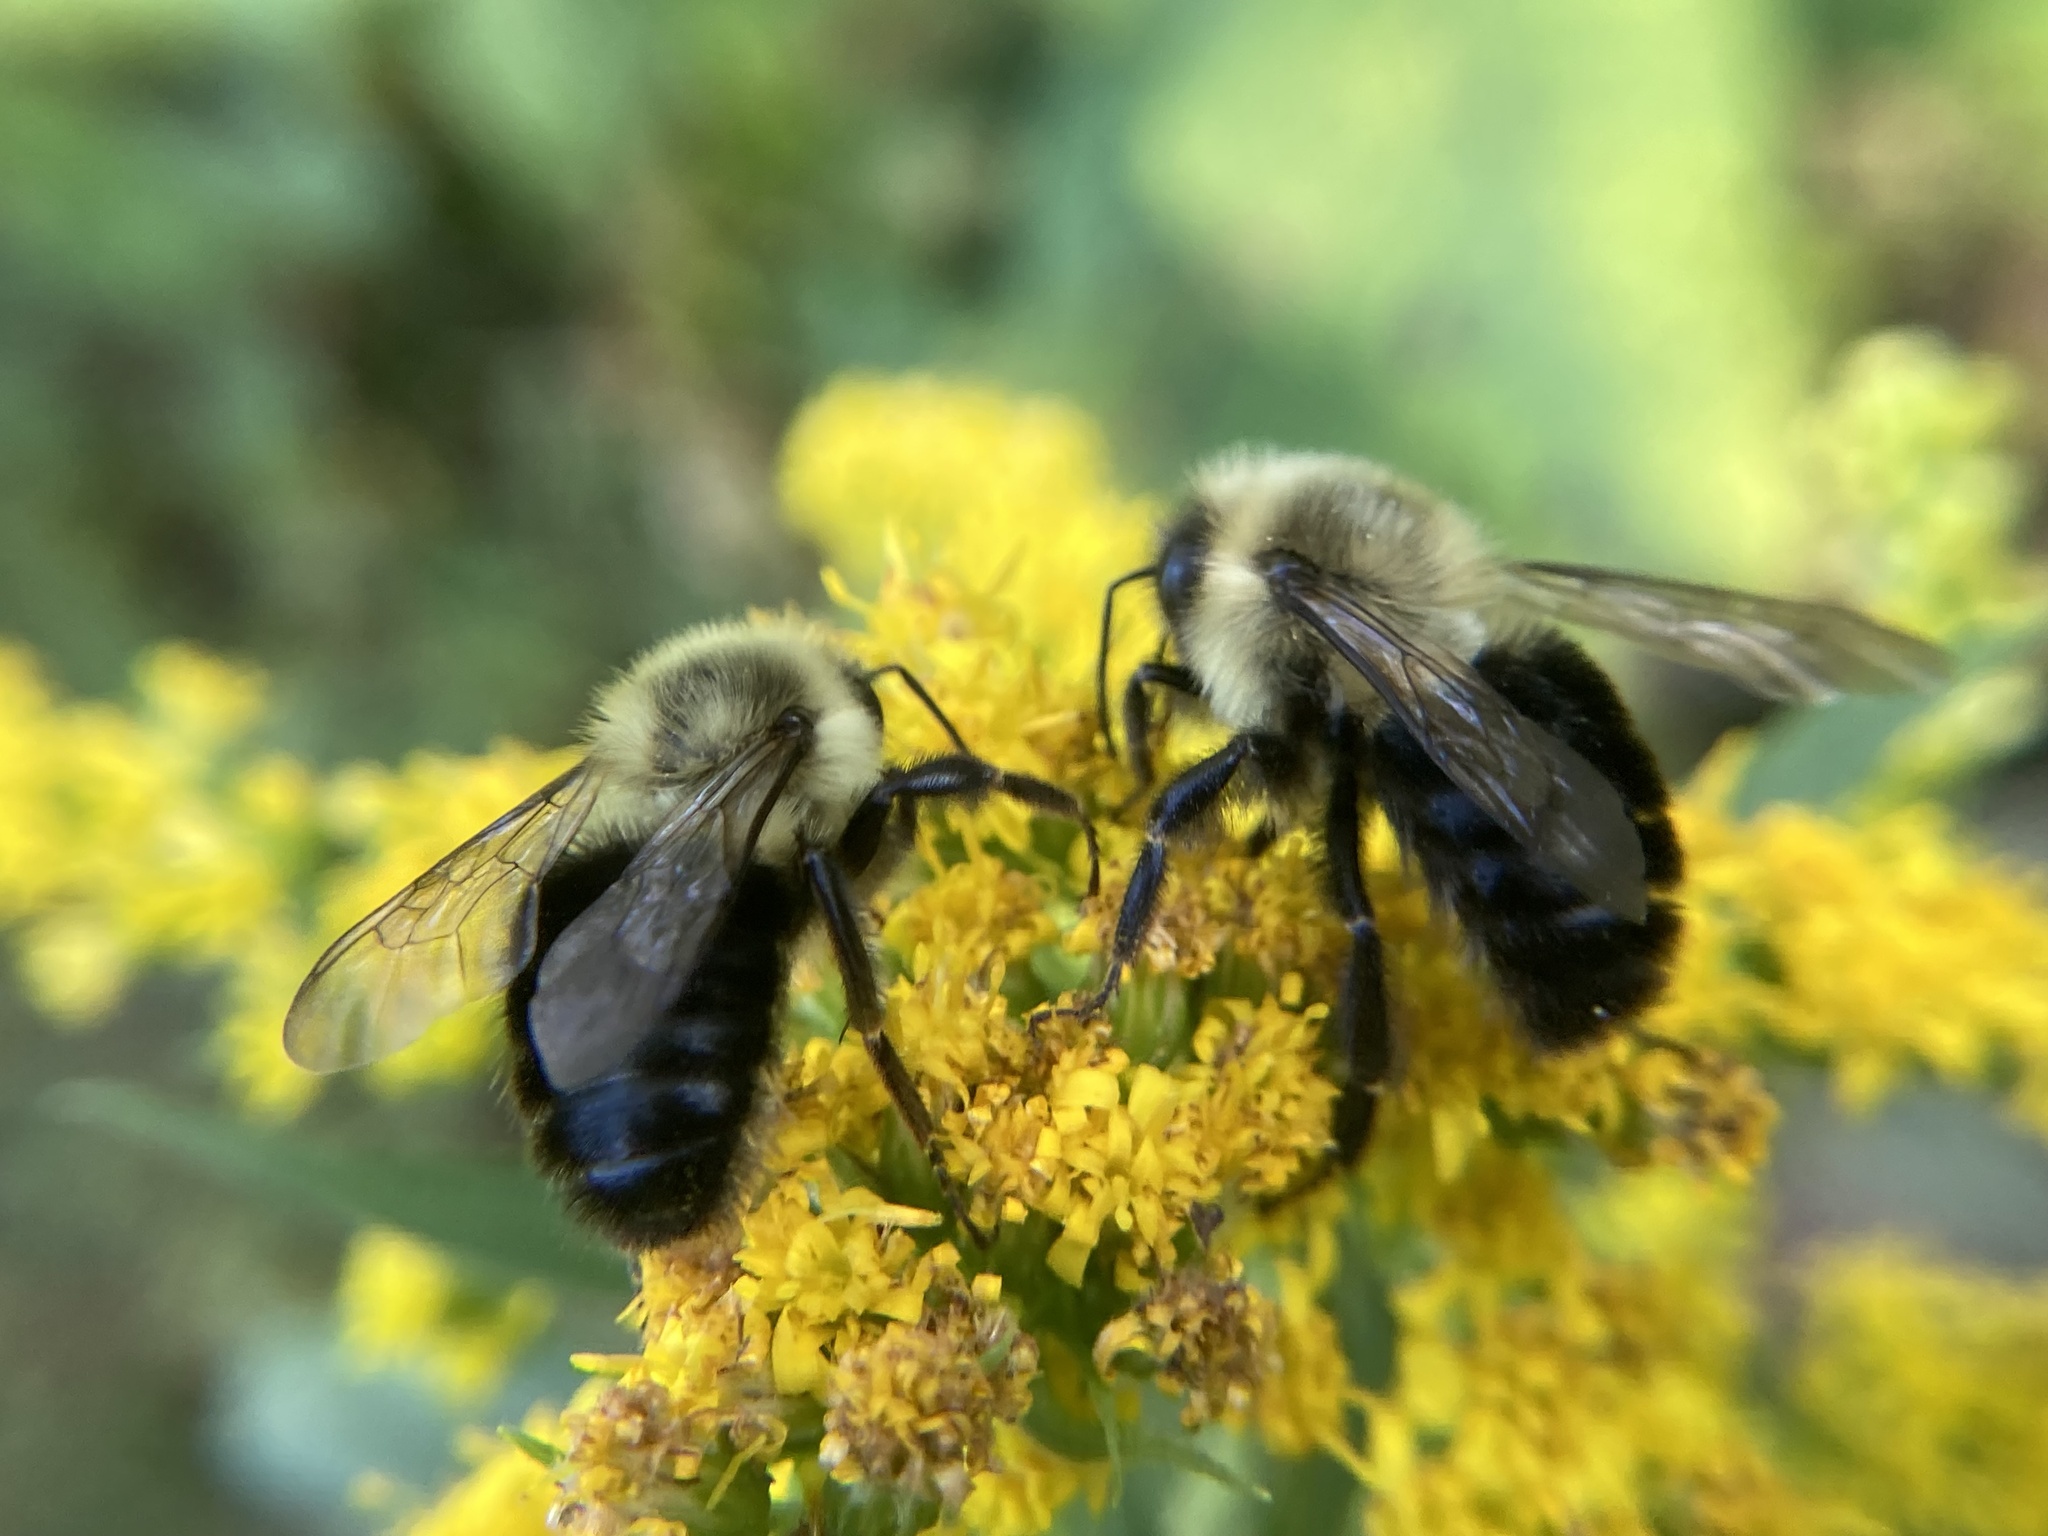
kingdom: Animalia
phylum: Arthropoda
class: Insecta
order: Hymenoptera
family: Apidae
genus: Bombus
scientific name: Bombus impatiens
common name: Common eastern bumble bee
